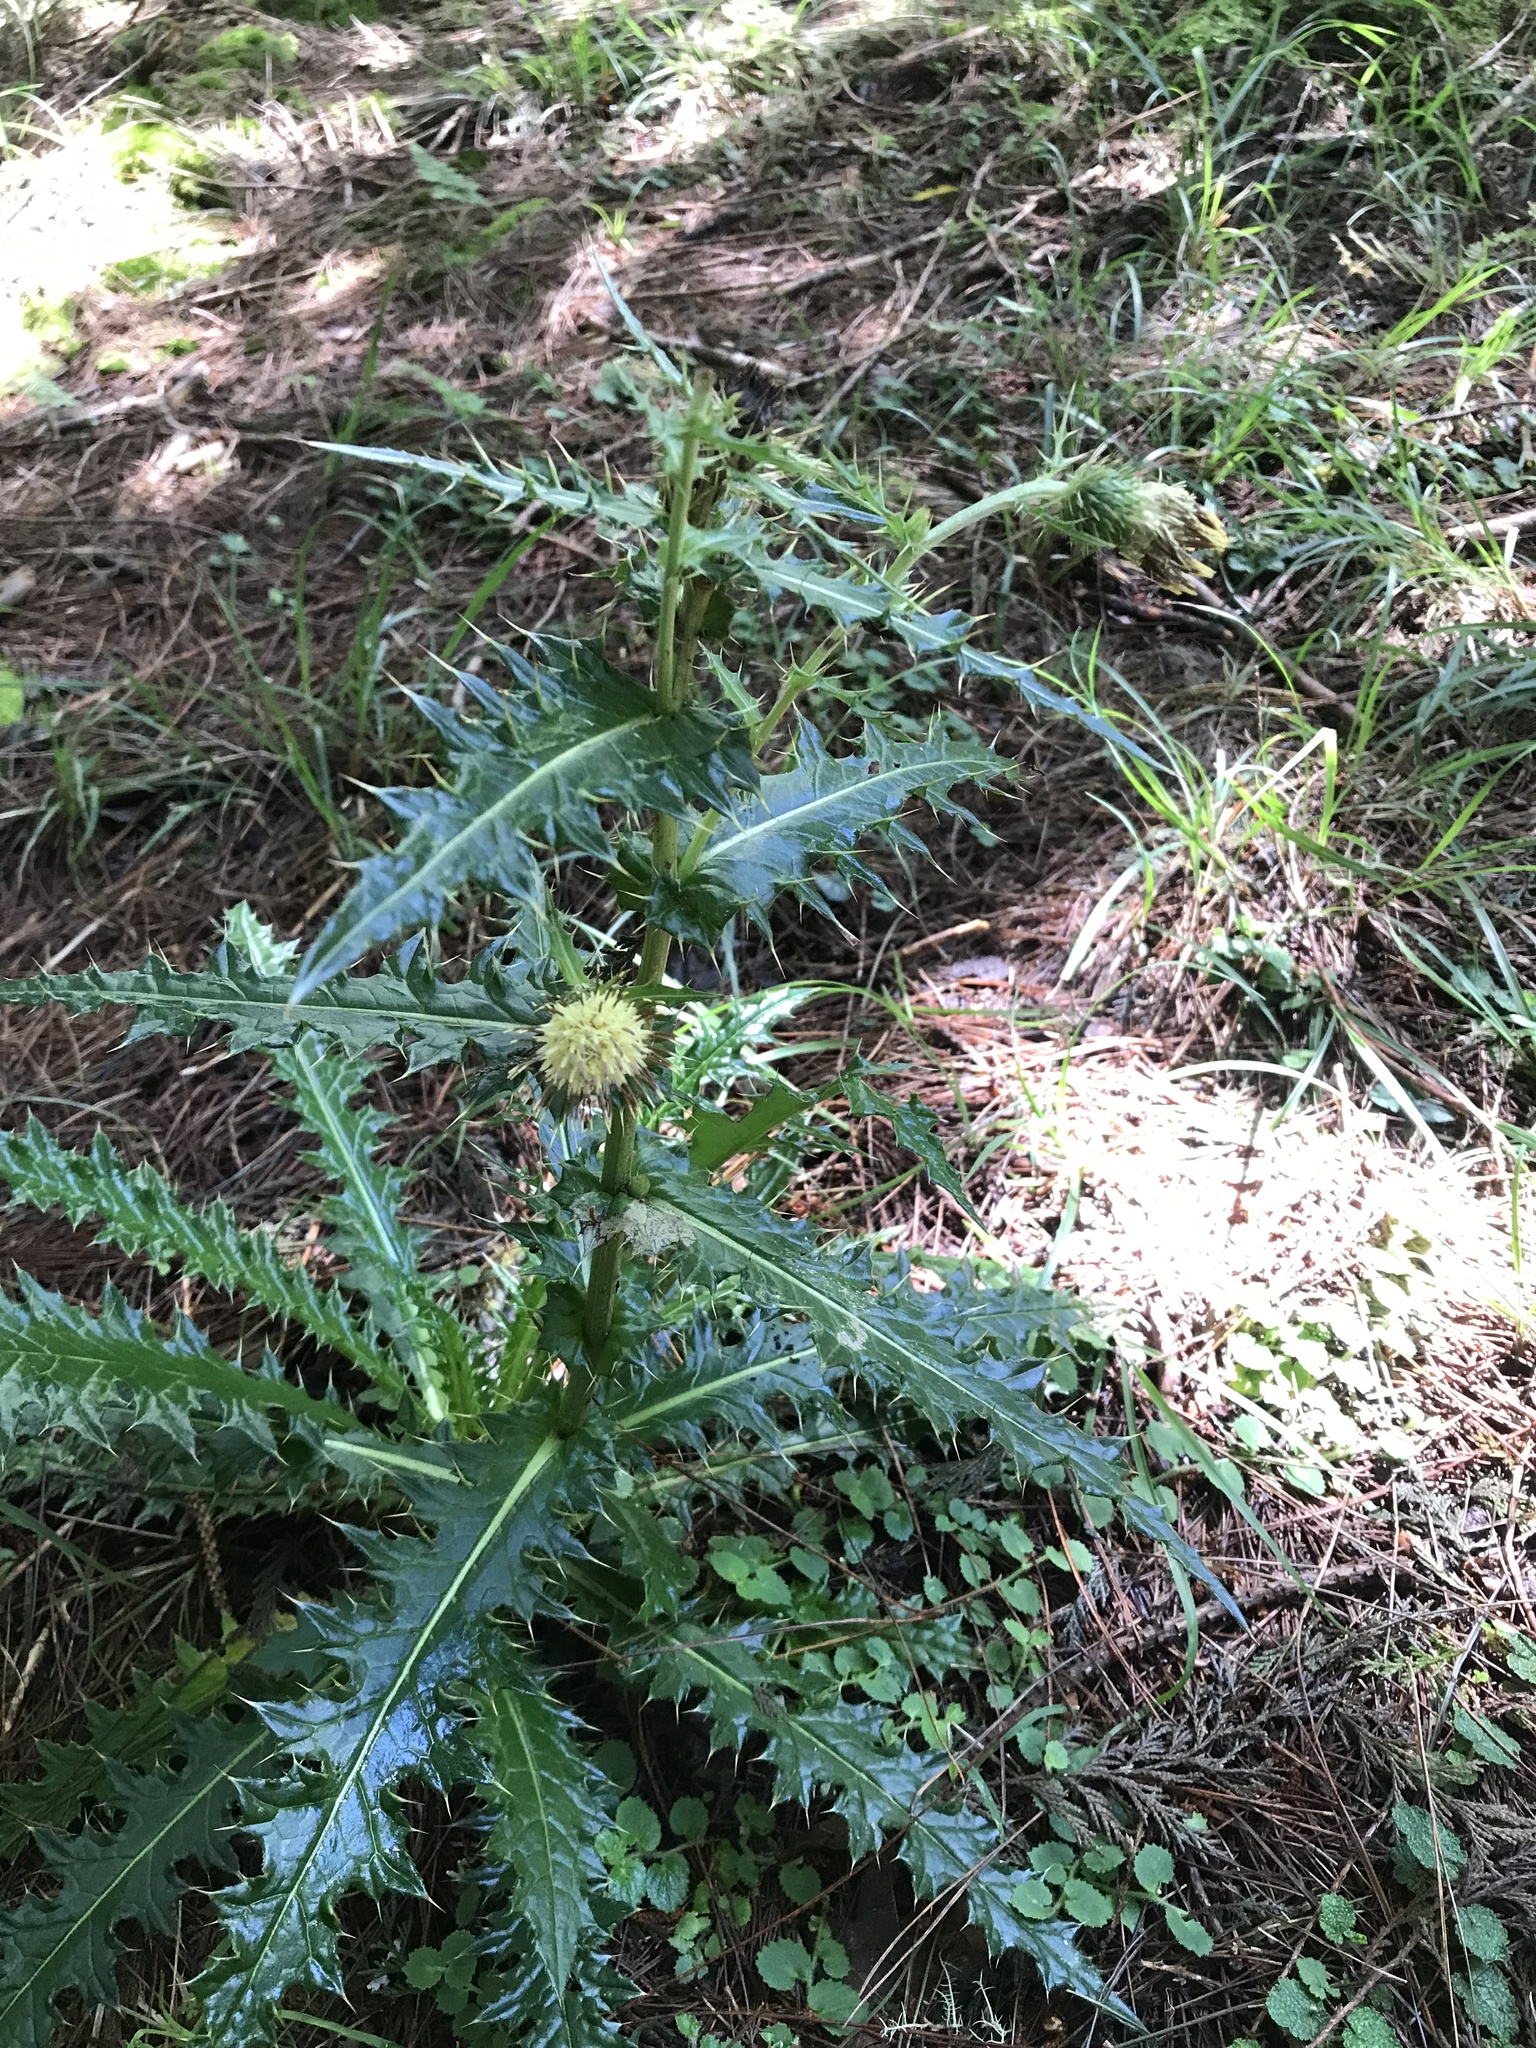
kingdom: Plantae
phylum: Tracheophyta
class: Magnoliopsida
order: Asterales
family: Asteraceae
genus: Cirsium
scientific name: Cirsium arisanense
